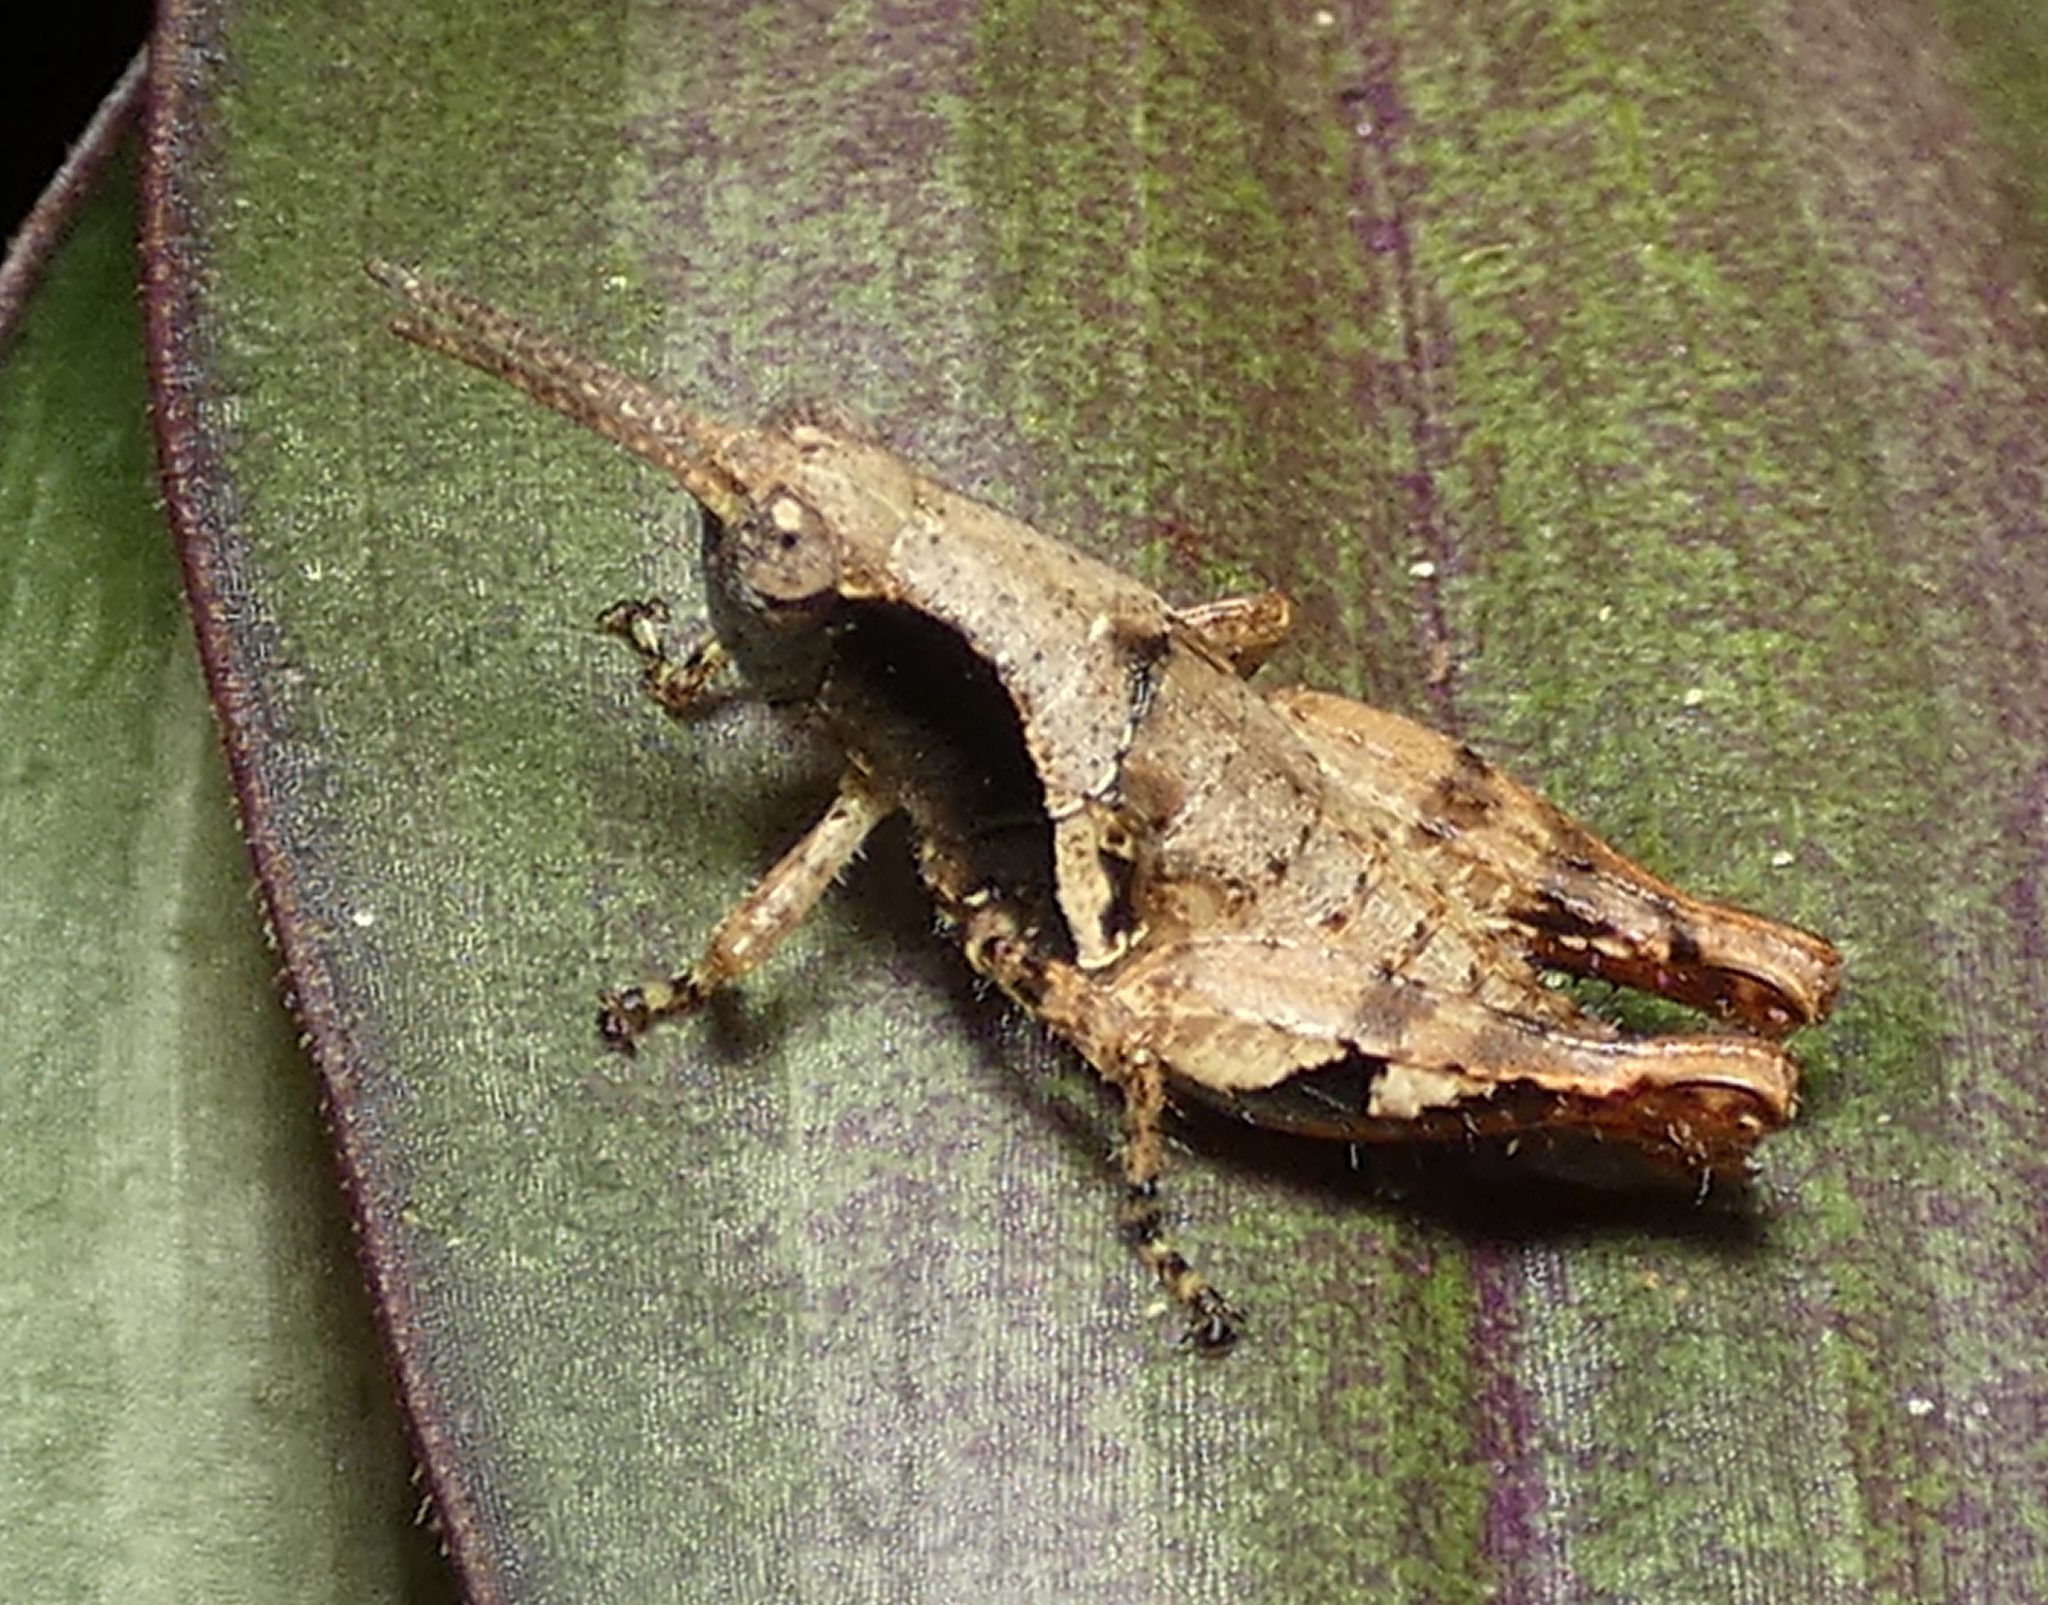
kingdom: Animalia
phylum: Arthropoda
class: Insecta
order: Orthoptera
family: Acrididae
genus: Eujivarus
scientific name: Eujivarus meridionalis
